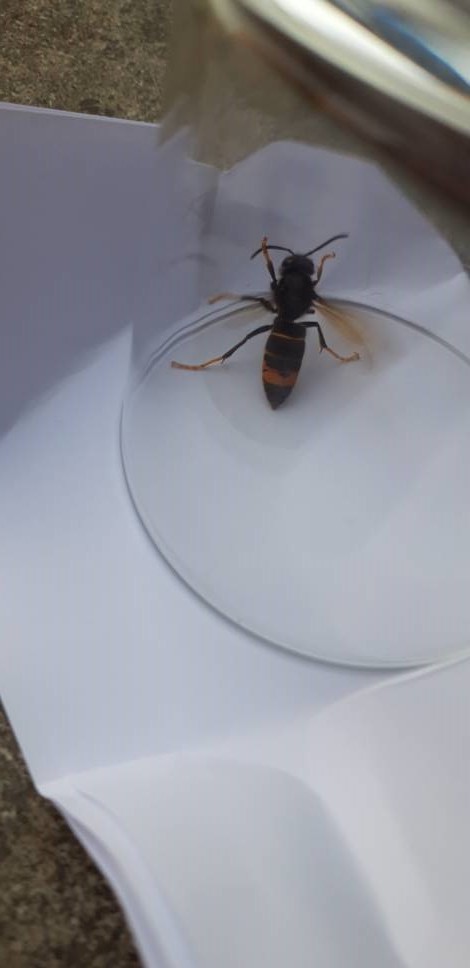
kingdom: Animalia
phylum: Arthropoda
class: Insecta
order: Hymenoptera
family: Vespidae
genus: Vespa
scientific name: Vespa velutina
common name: Asian hornet
